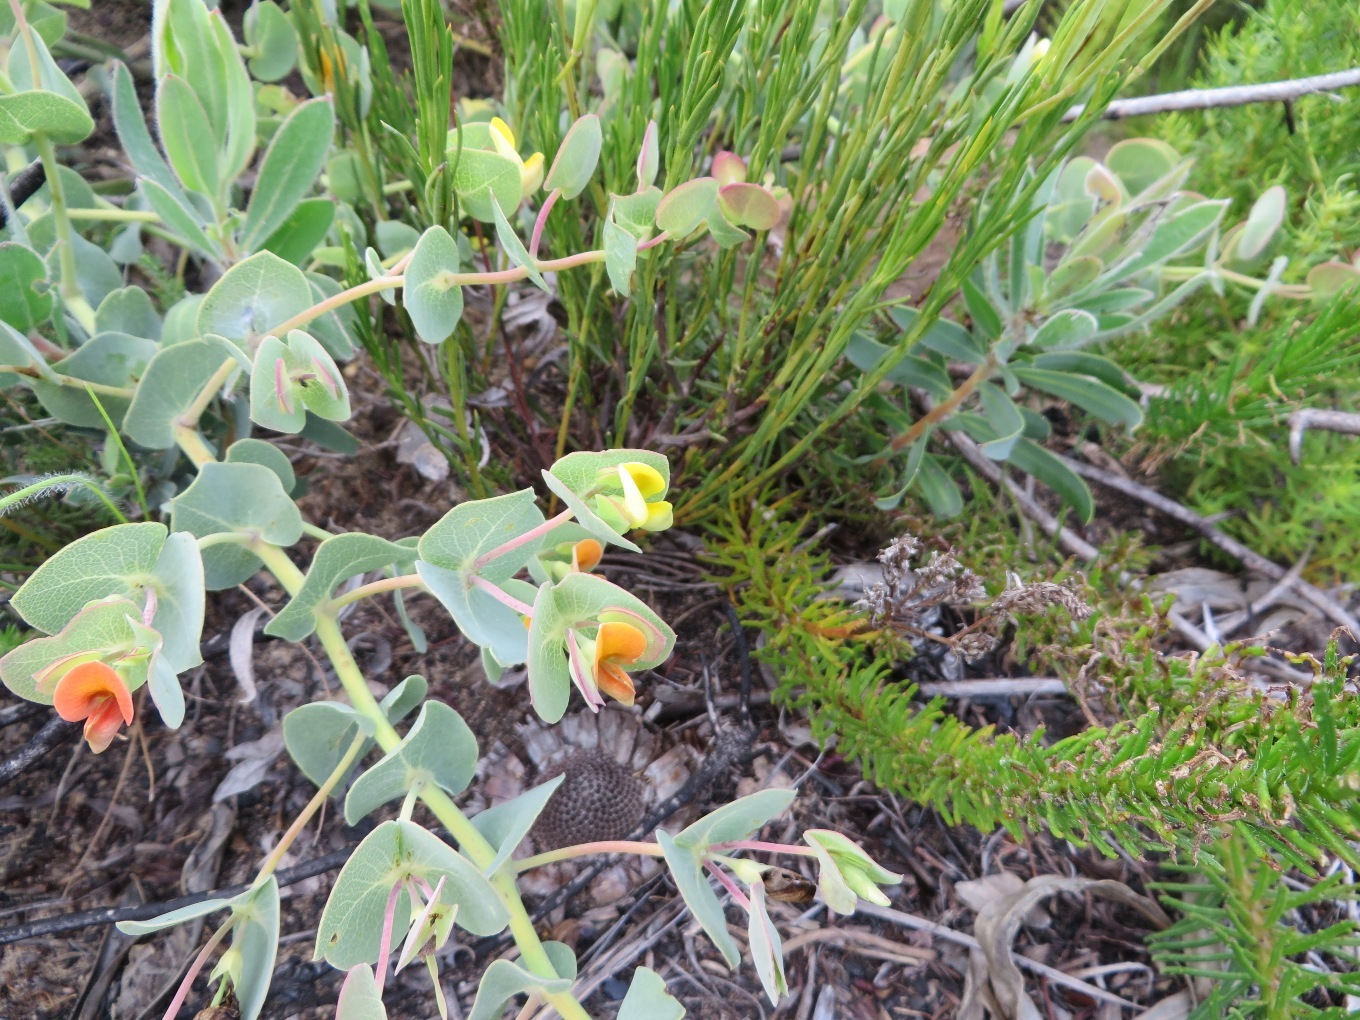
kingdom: Plantae
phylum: Tracheophyta
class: Magnoliopsida
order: Fabales
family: Fabaceae
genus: Rafnia
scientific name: Rafnia acuminata
